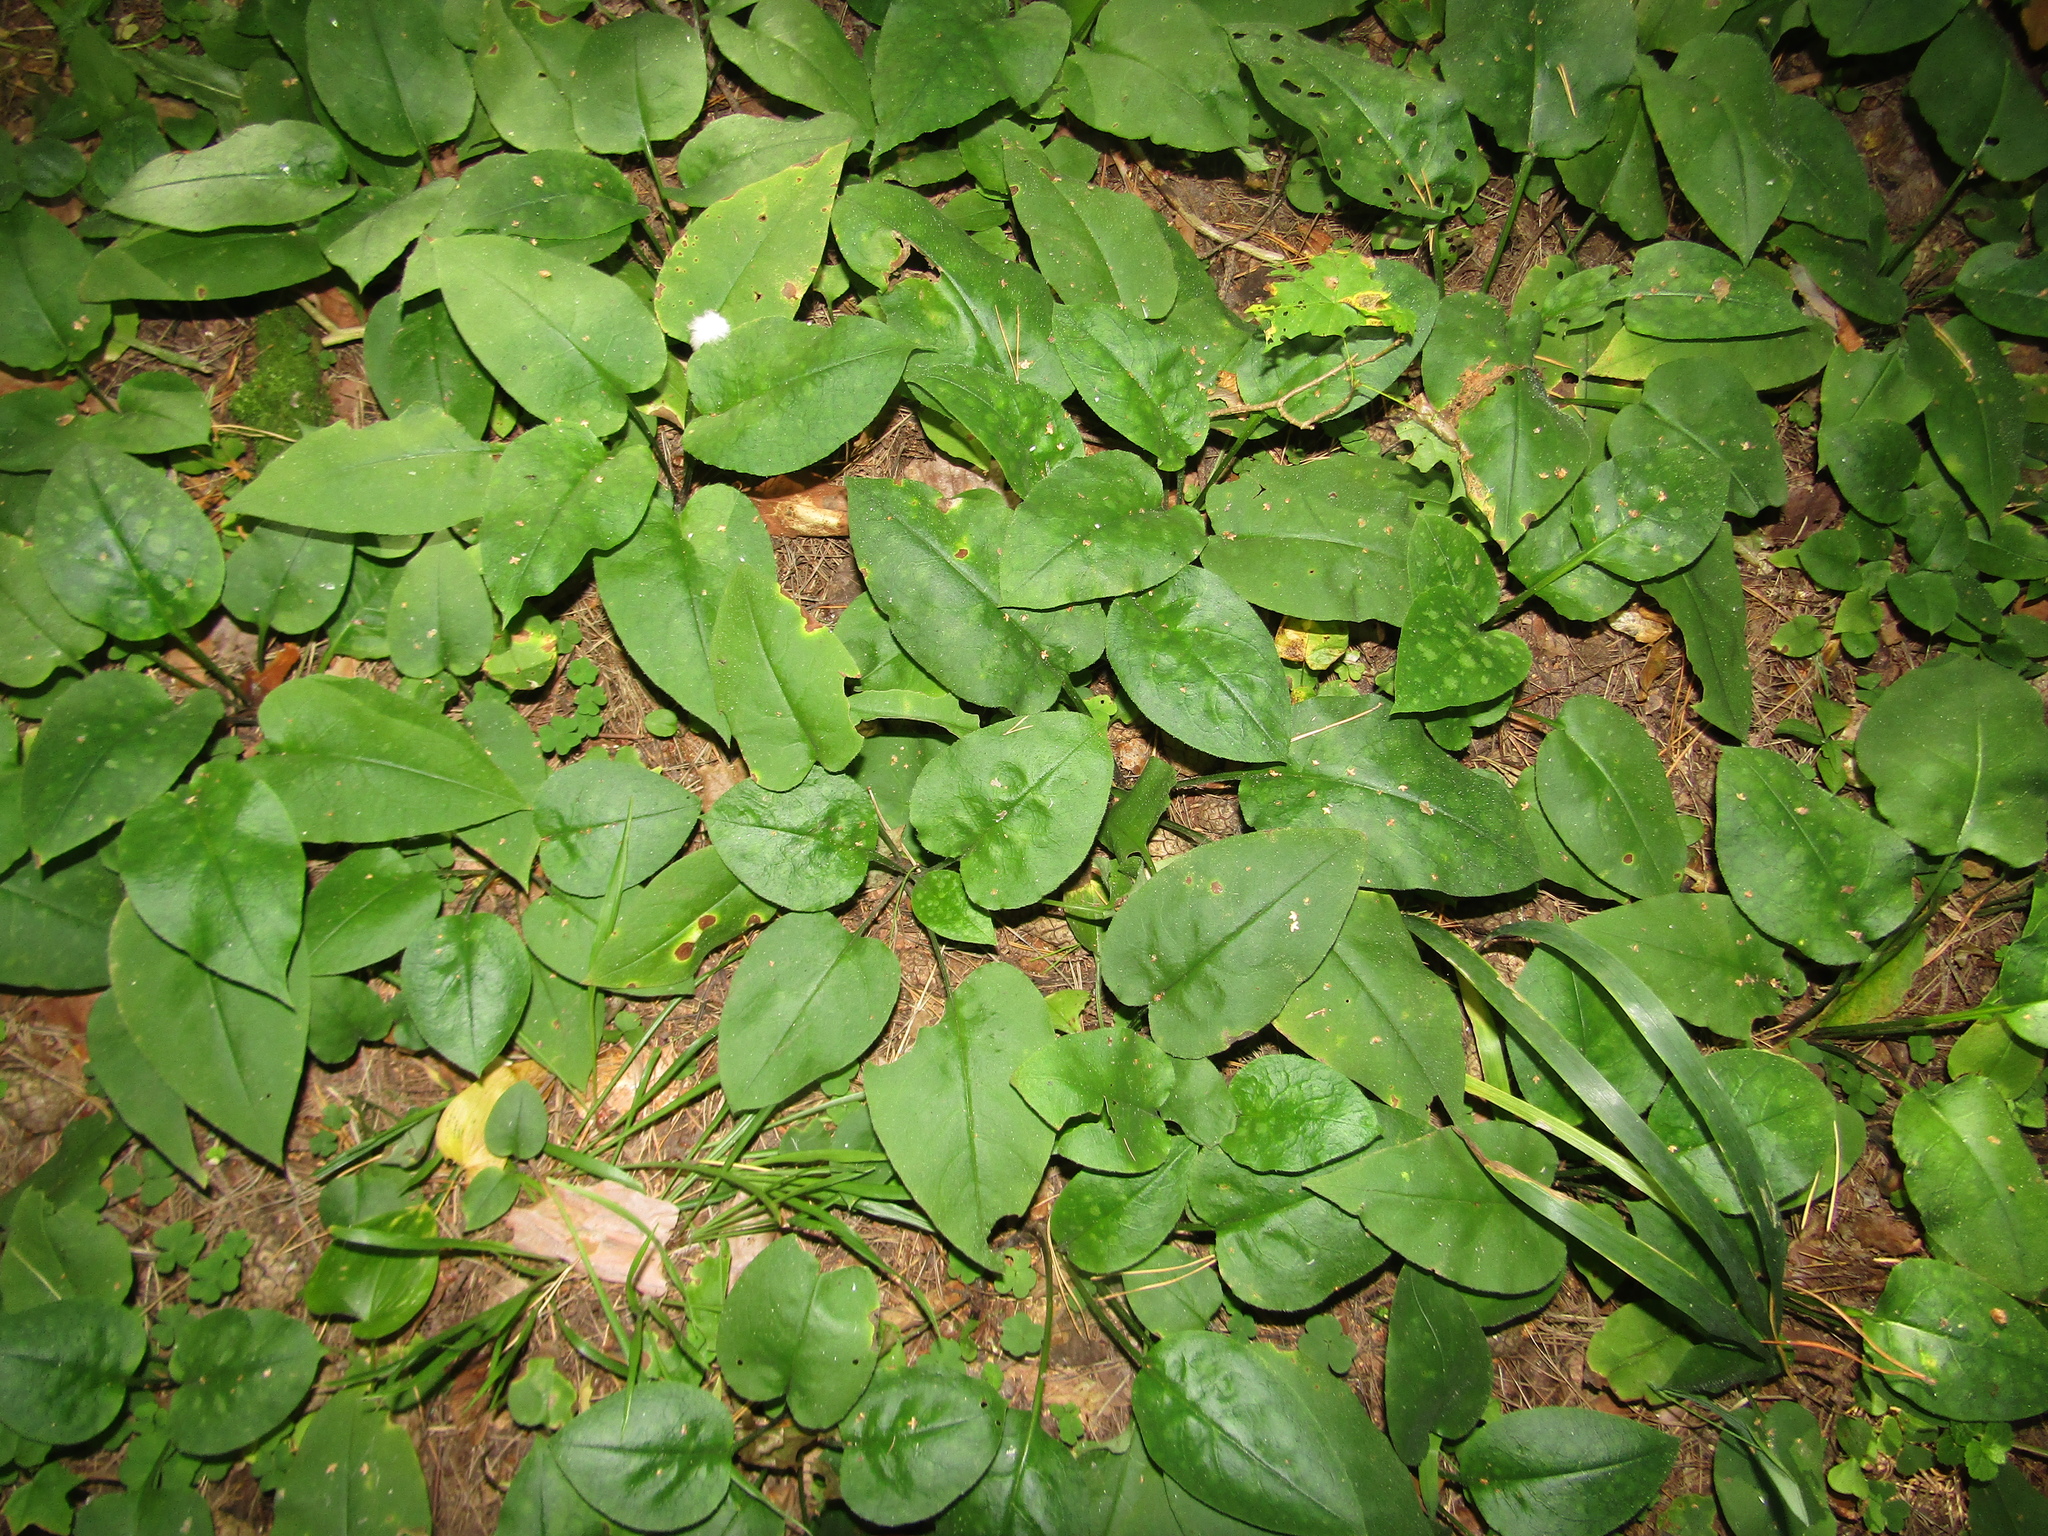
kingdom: Plantae
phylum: Tracheophyta
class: Magnoliopsida
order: Boraginales
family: Boraginaceae
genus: Pulmonaria
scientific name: Pulmonaria obscura
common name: Suffolk lungwort
